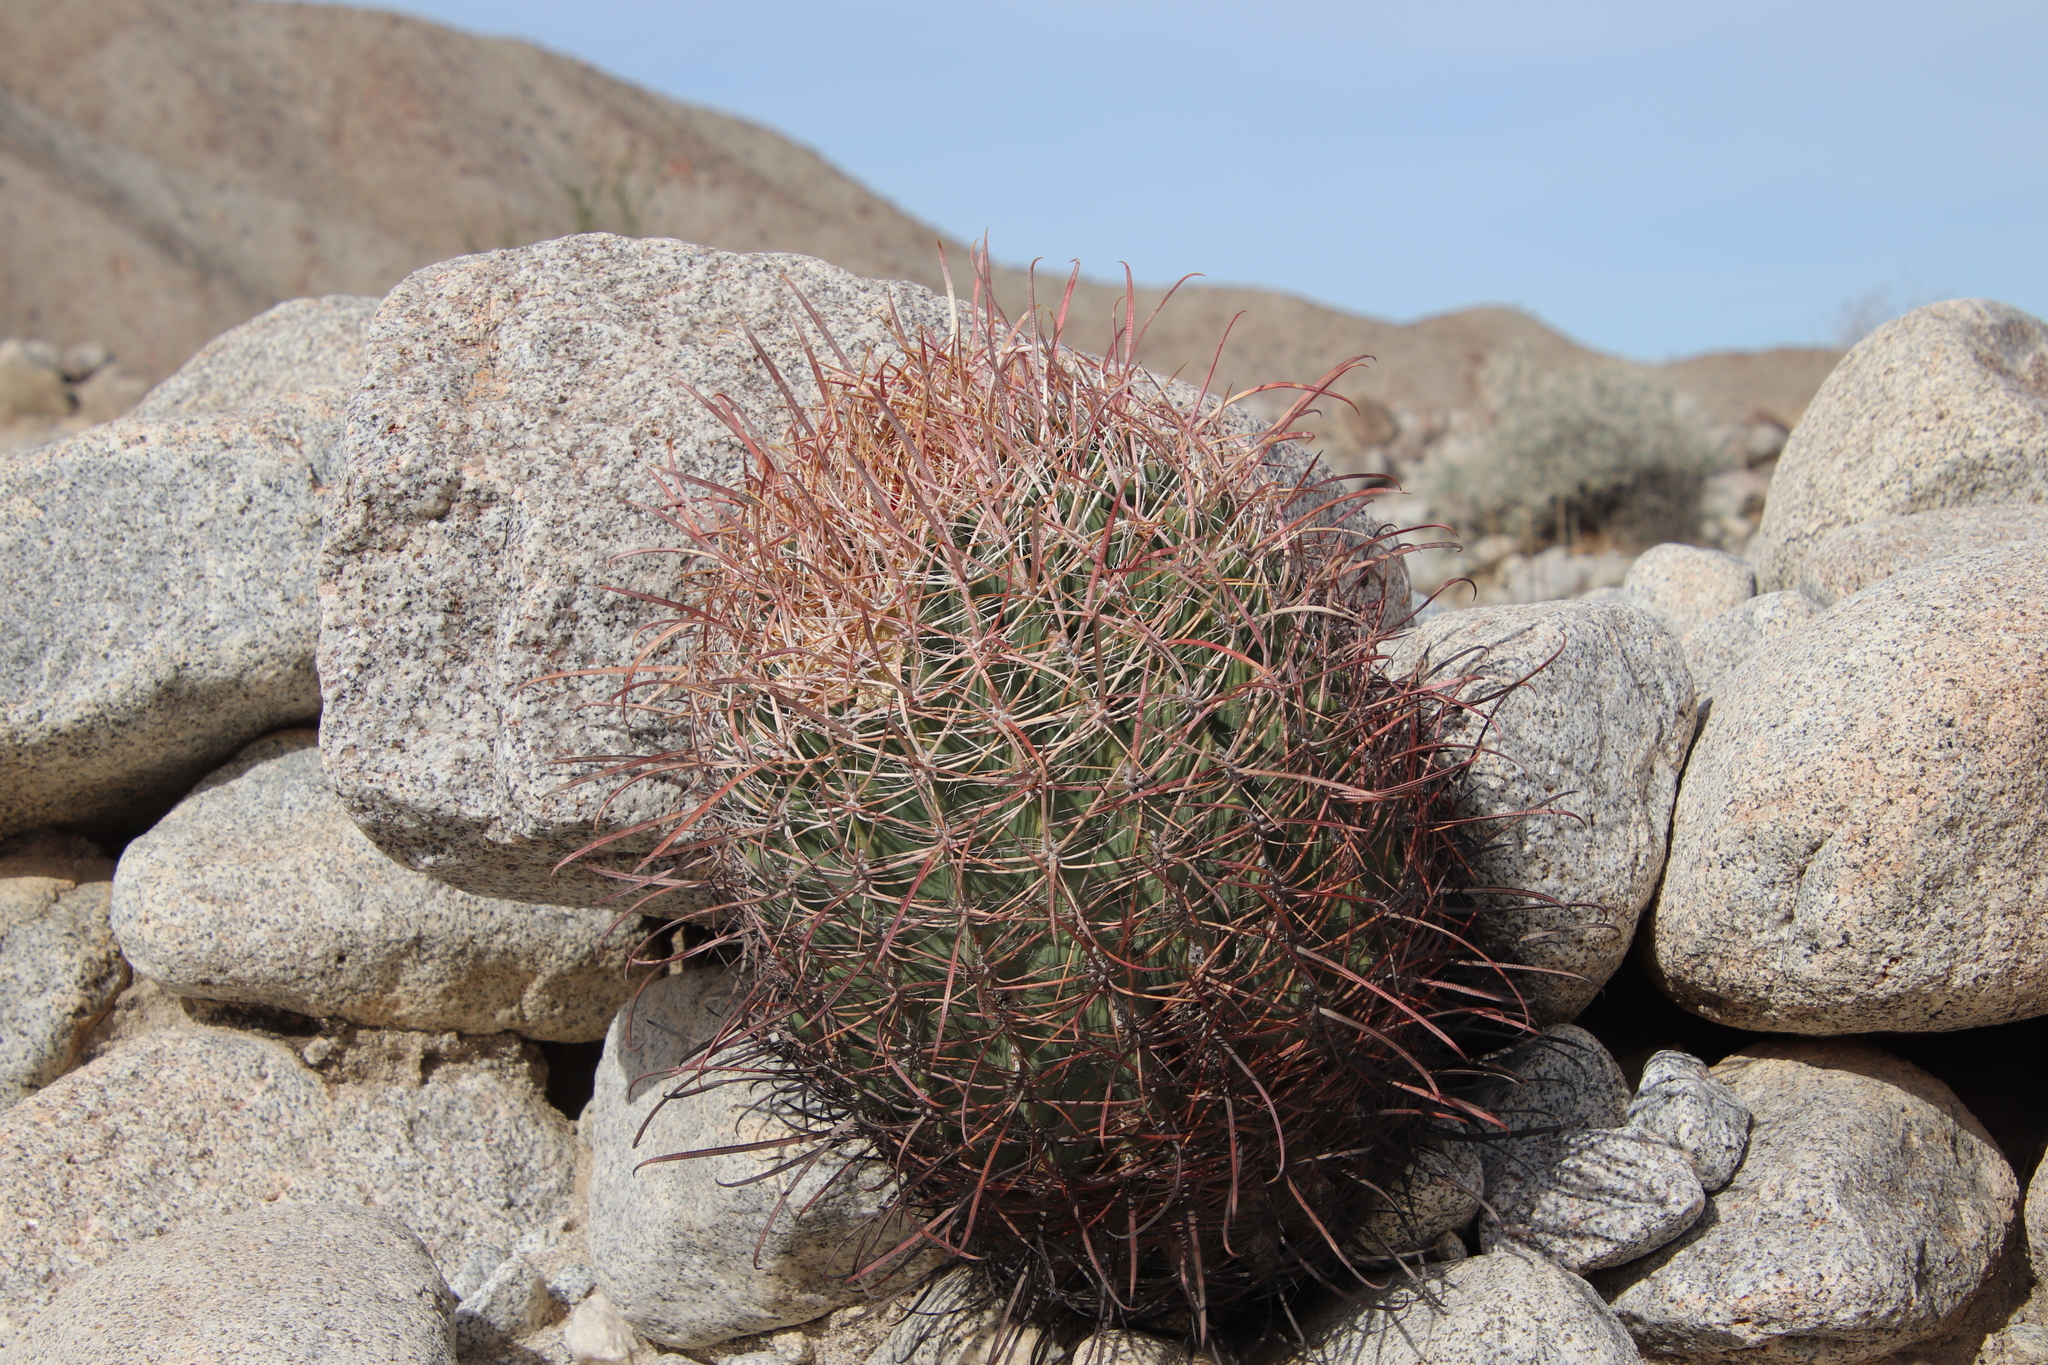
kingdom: Plantae
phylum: Tracheophyta
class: Magnoliopsida
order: Caryophyllales
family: Cactaceae
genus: Ferocactus
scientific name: Ferocactus cylindraceus
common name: California barrel cactus
